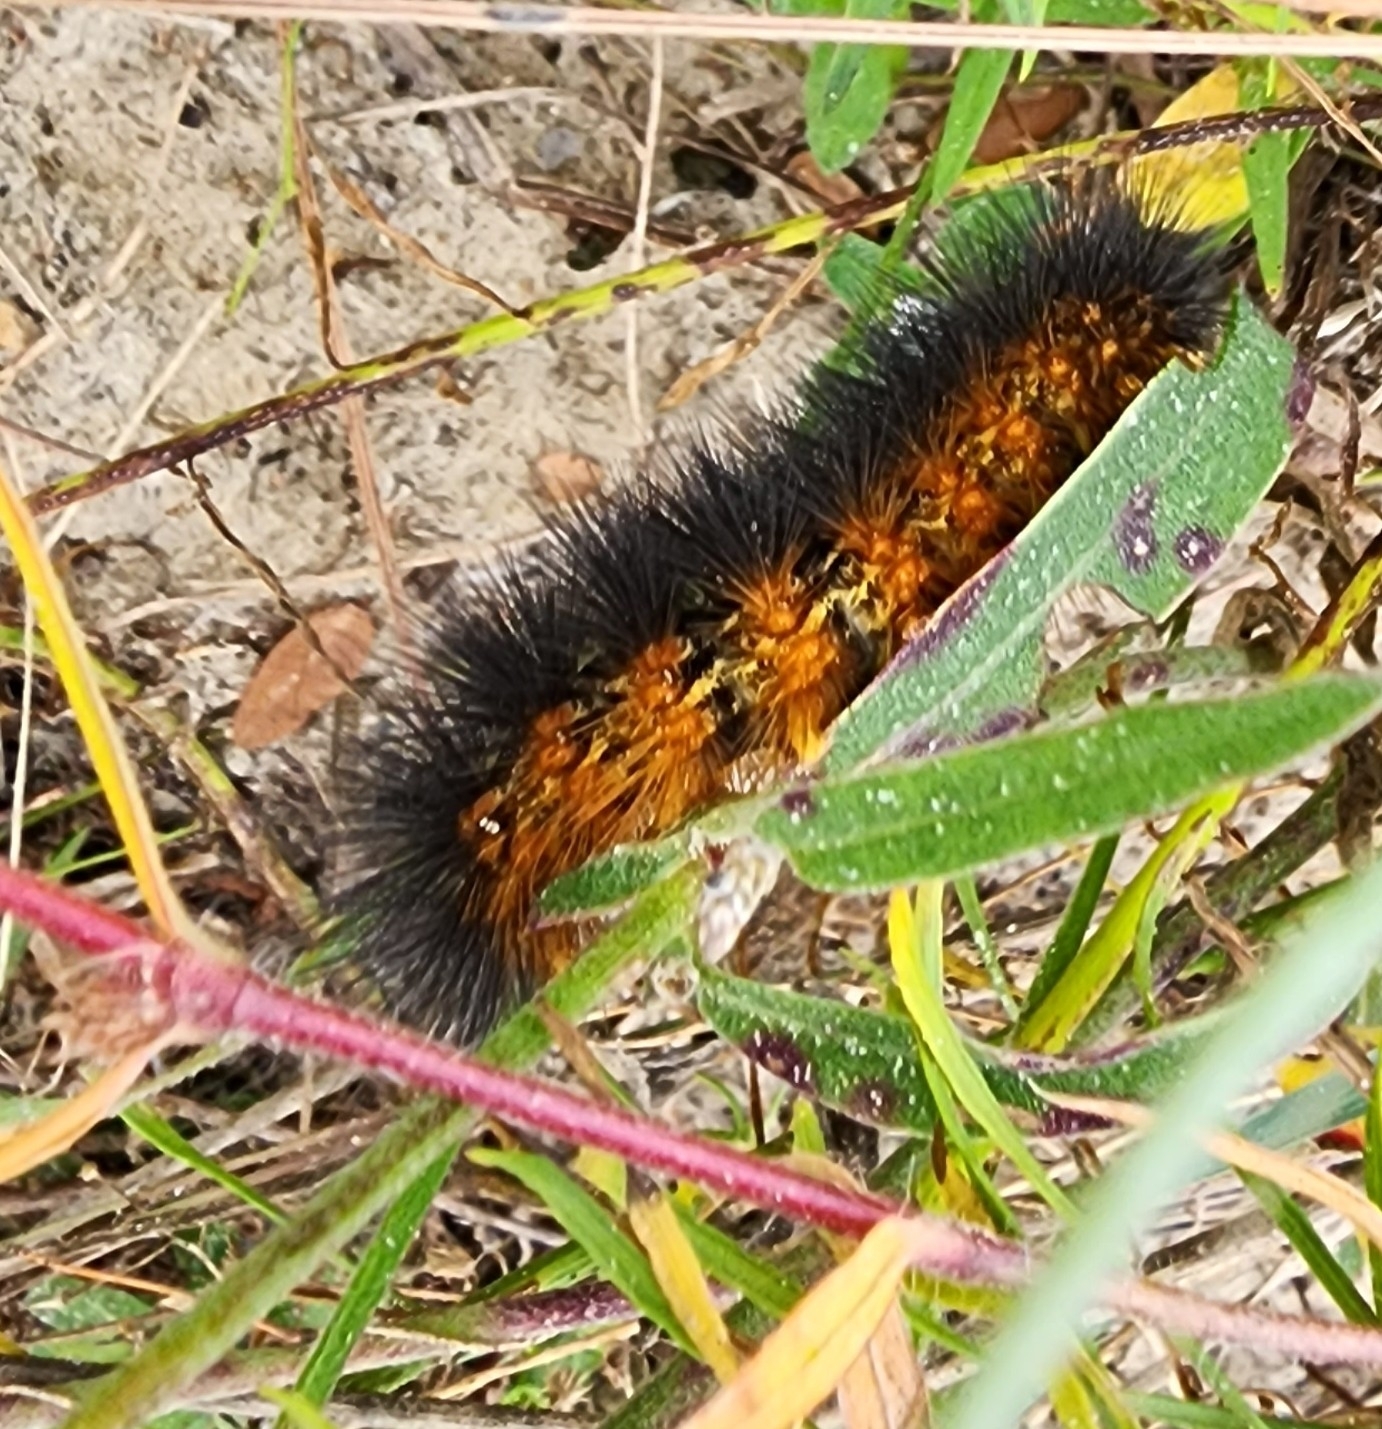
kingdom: Animalia
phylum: Arthropoda
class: Insecta
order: Lepidoptera
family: Erebidae
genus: Estigmene
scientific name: Estigmene acrea
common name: Salt marsh moth
